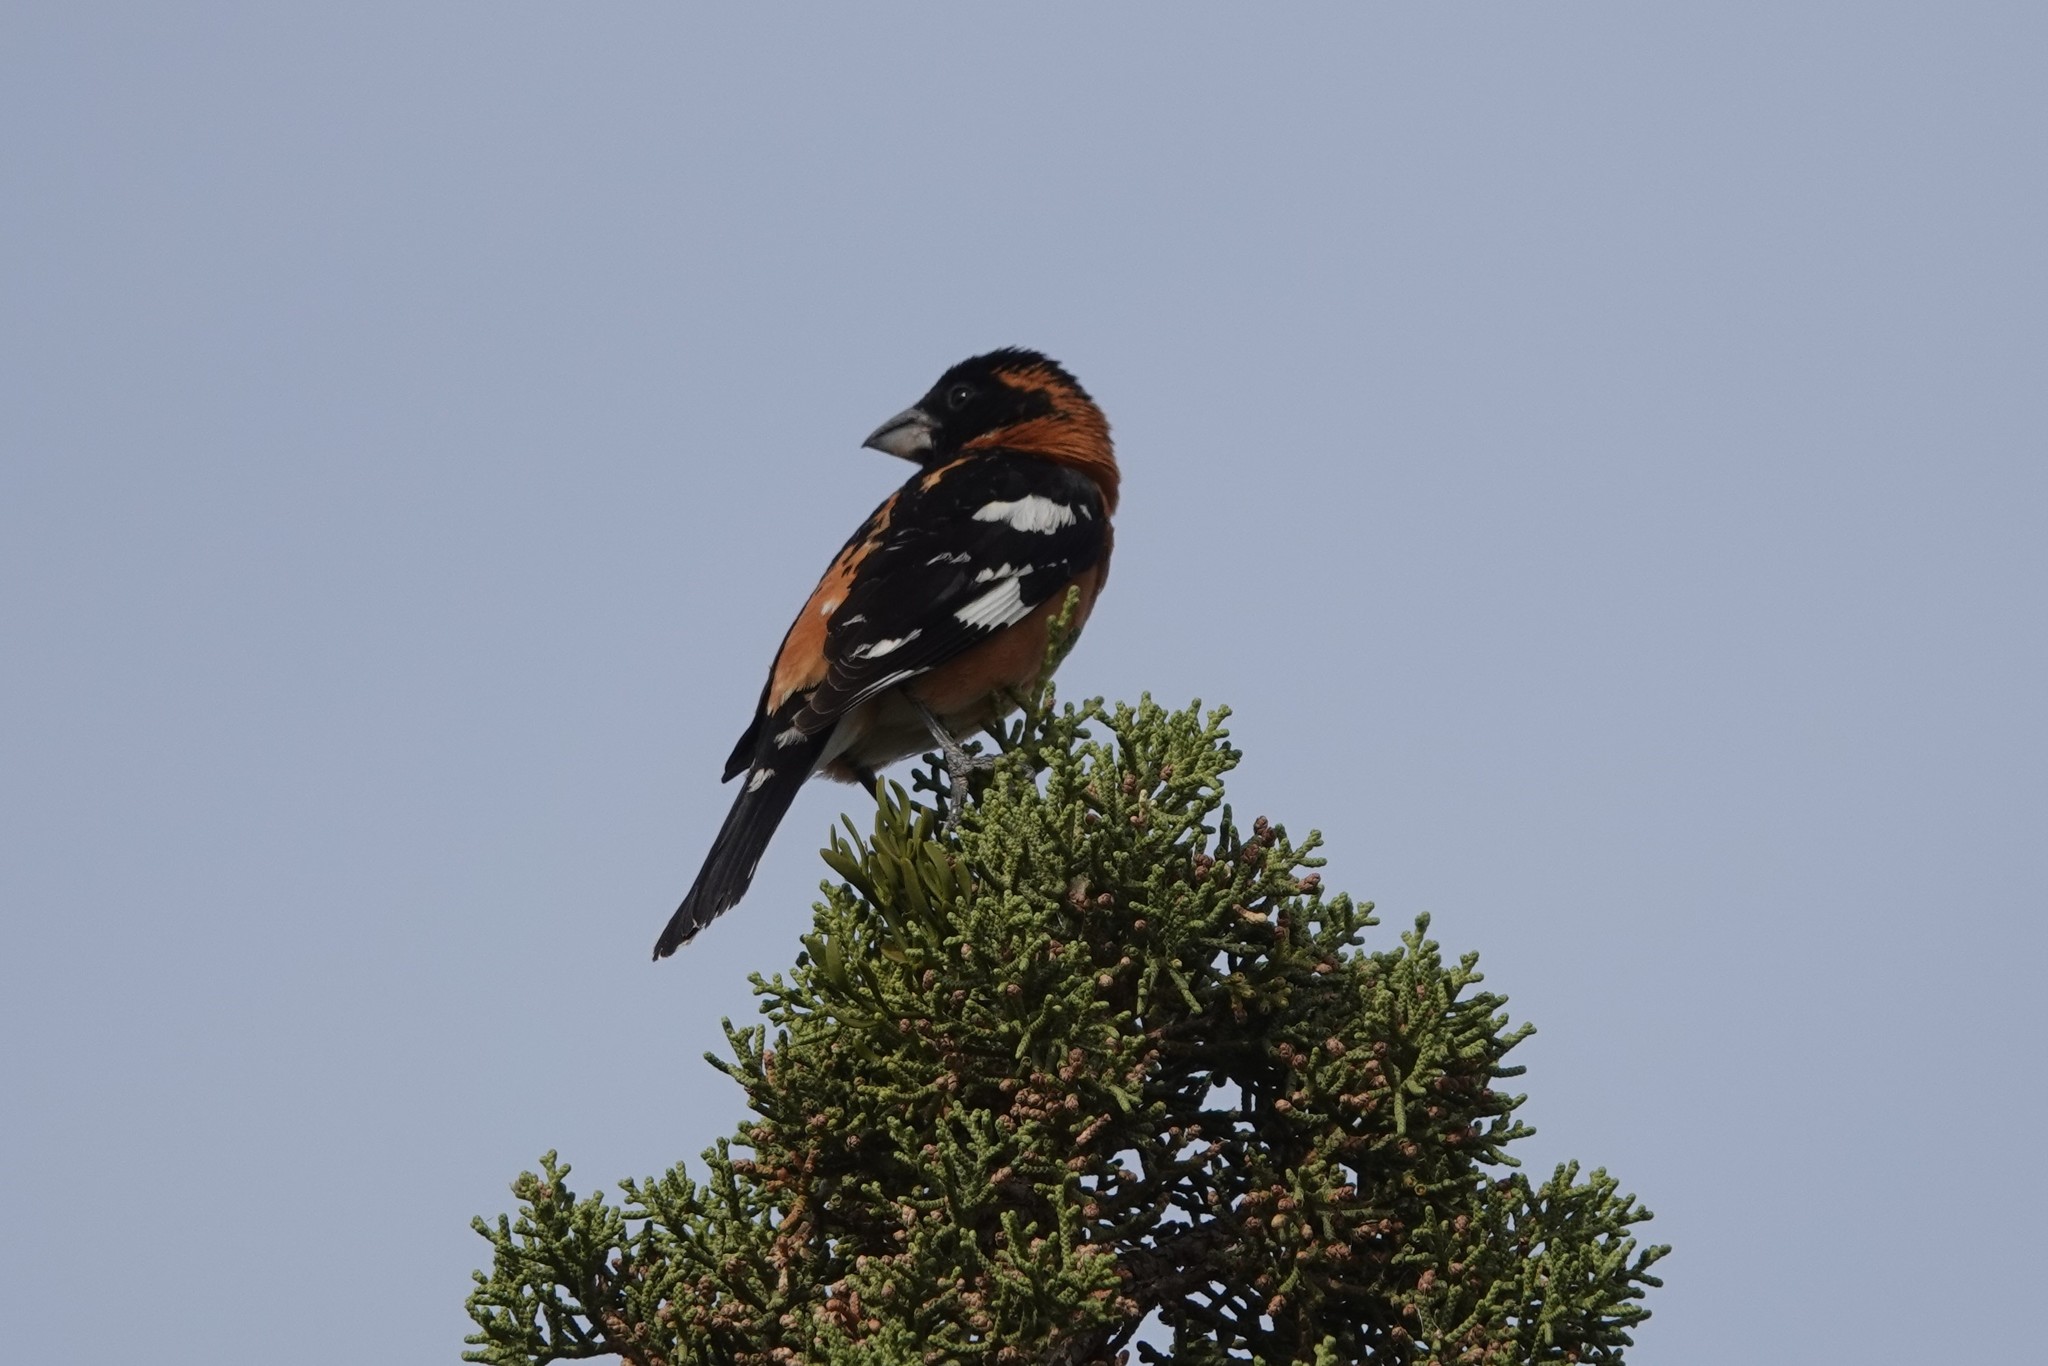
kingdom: Animalia
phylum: Chordata
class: Aves
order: Passeriformes
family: Cardinalidae
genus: Pheucticus
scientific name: Pheucticus melanocephalus
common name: Black-headed grosbeak
